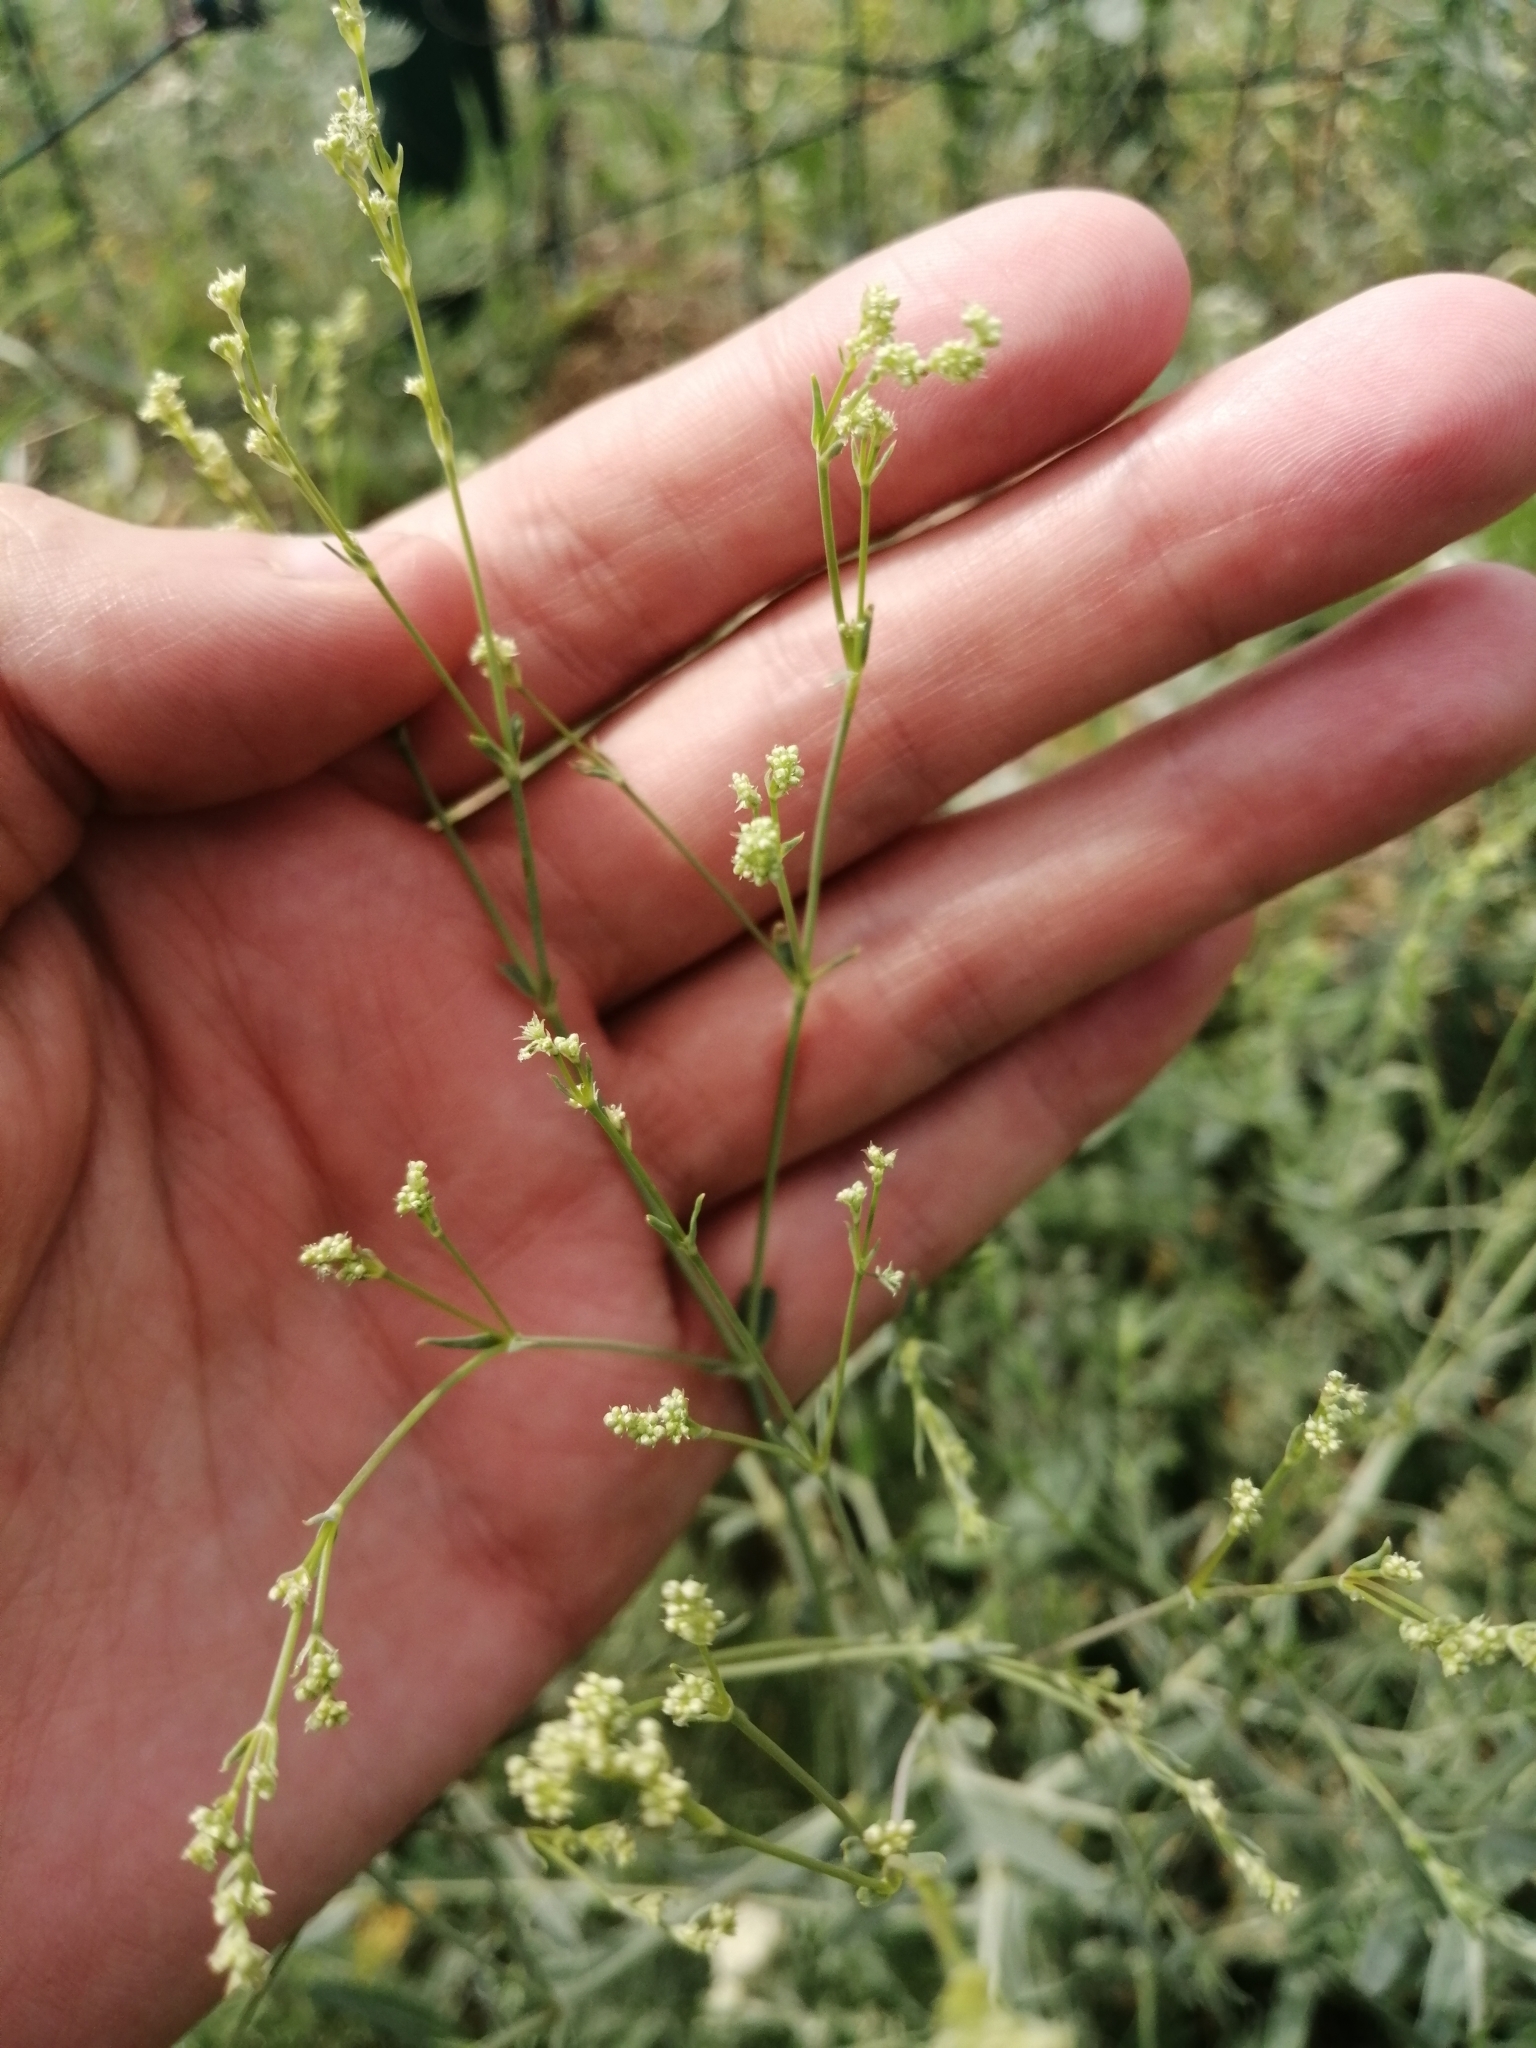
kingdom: Plantae
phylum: Tracheophyta
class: Magnoliopsida
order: Caryophyllales
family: Caryophyllaceae
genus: Gypsophila
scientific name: Gypsophila paniculata
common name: Baby's-breath
